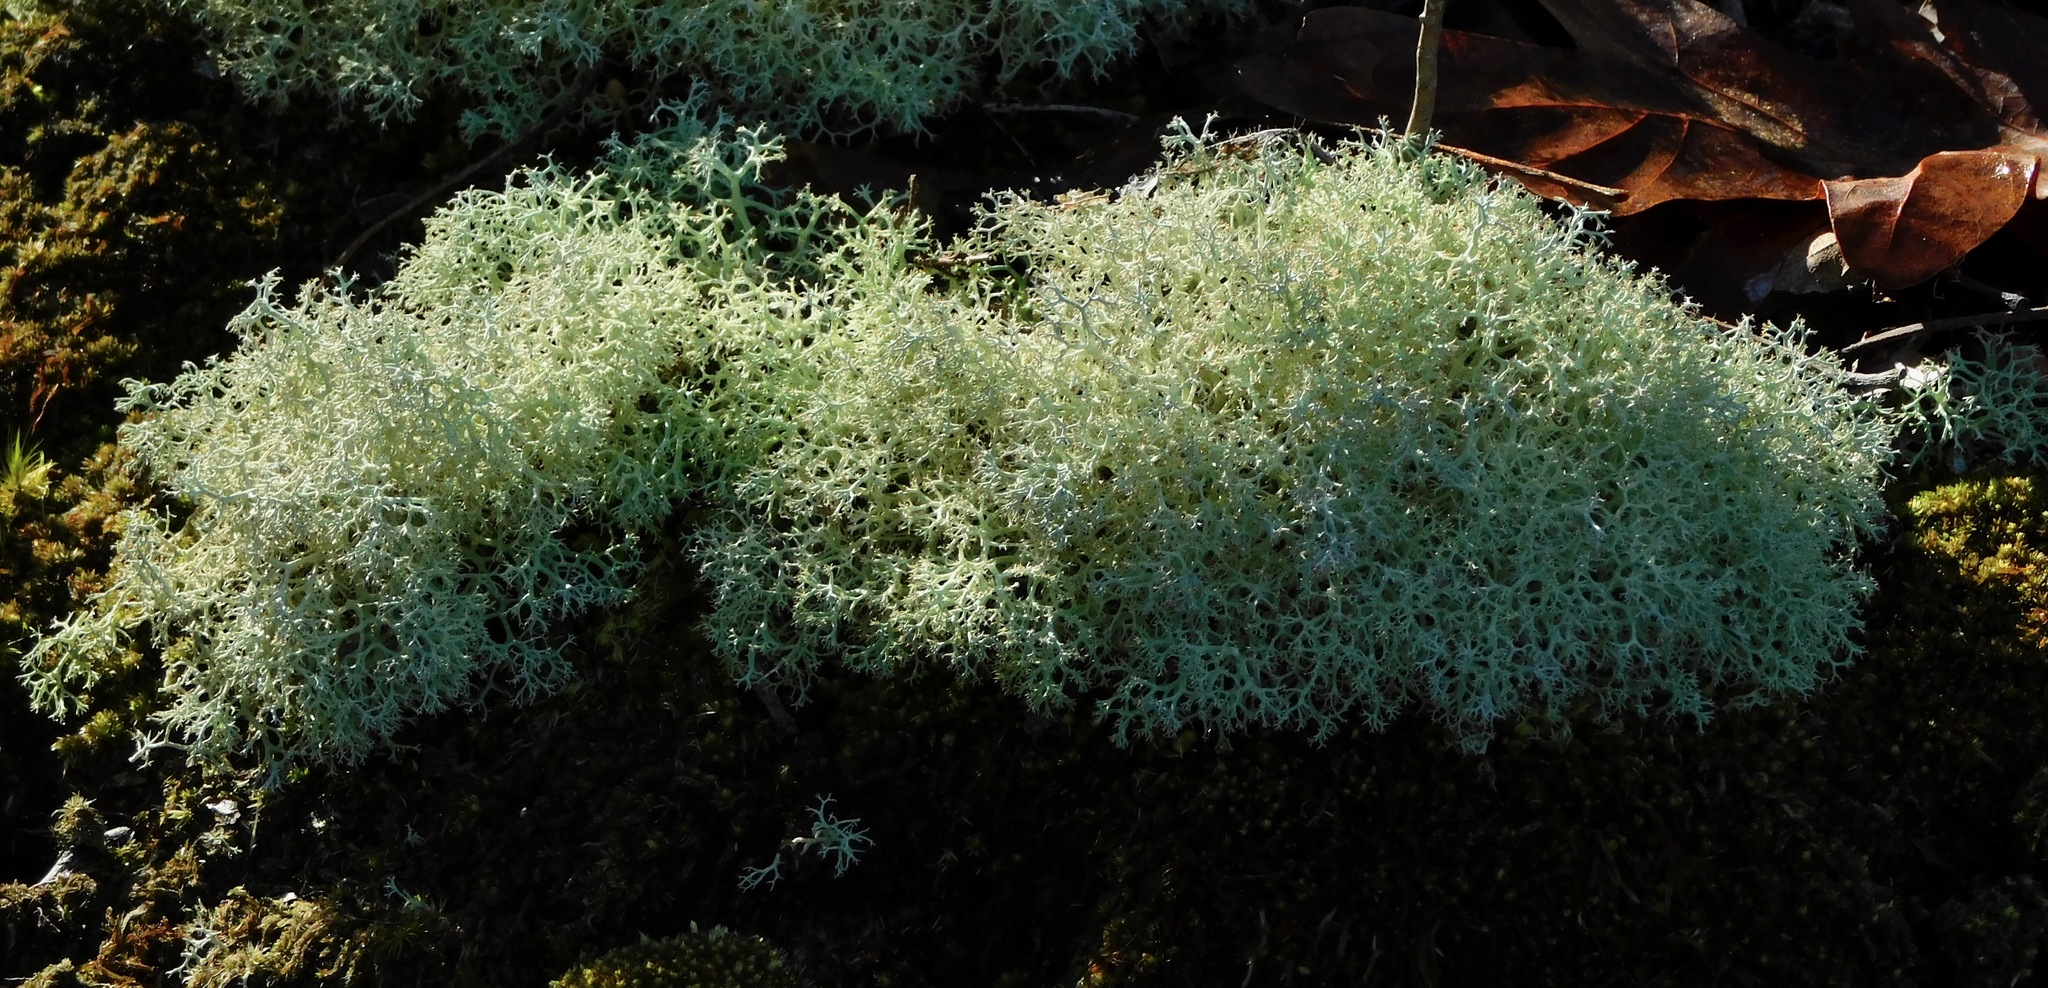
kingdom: Fungi
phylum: Ascomycota
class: Lecanoromycetes
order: Lecanorales
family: Cladoniaceae
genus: Cladonia
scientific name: Cladonia subtenuis
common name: Dixie reindeer lichen
